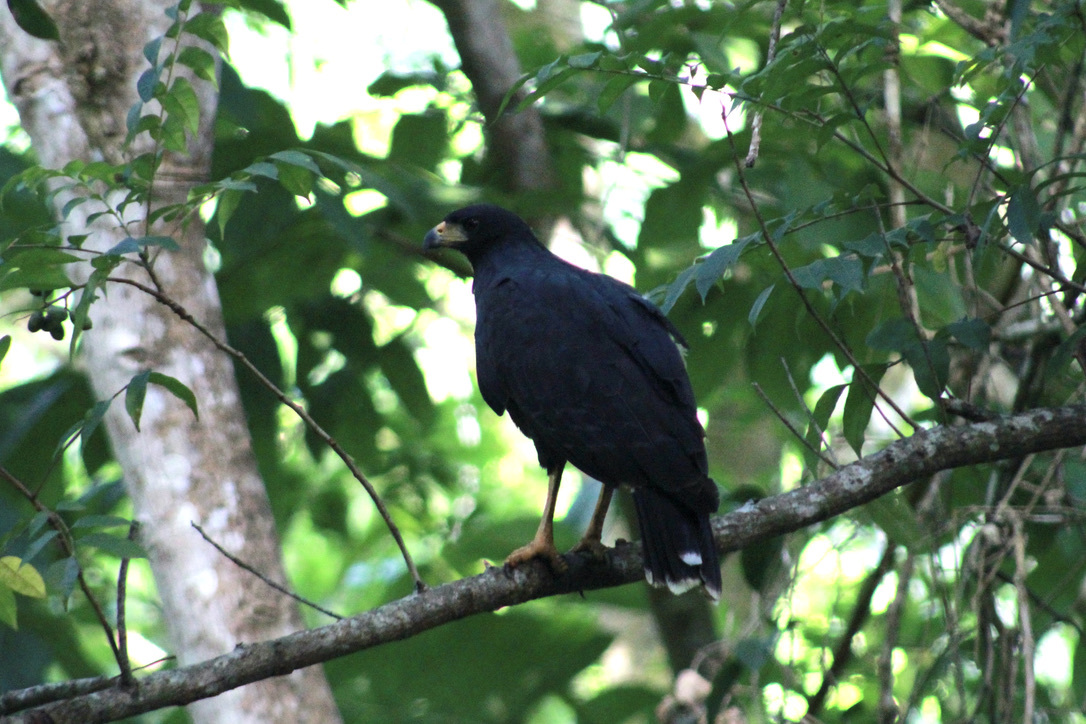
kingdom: Animalia
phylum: Chordata
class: Aves
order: Accipitriformes
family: Accipitridae
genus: Buteogallus
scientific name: Buteogallus urubitinga
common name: Great black hawk
